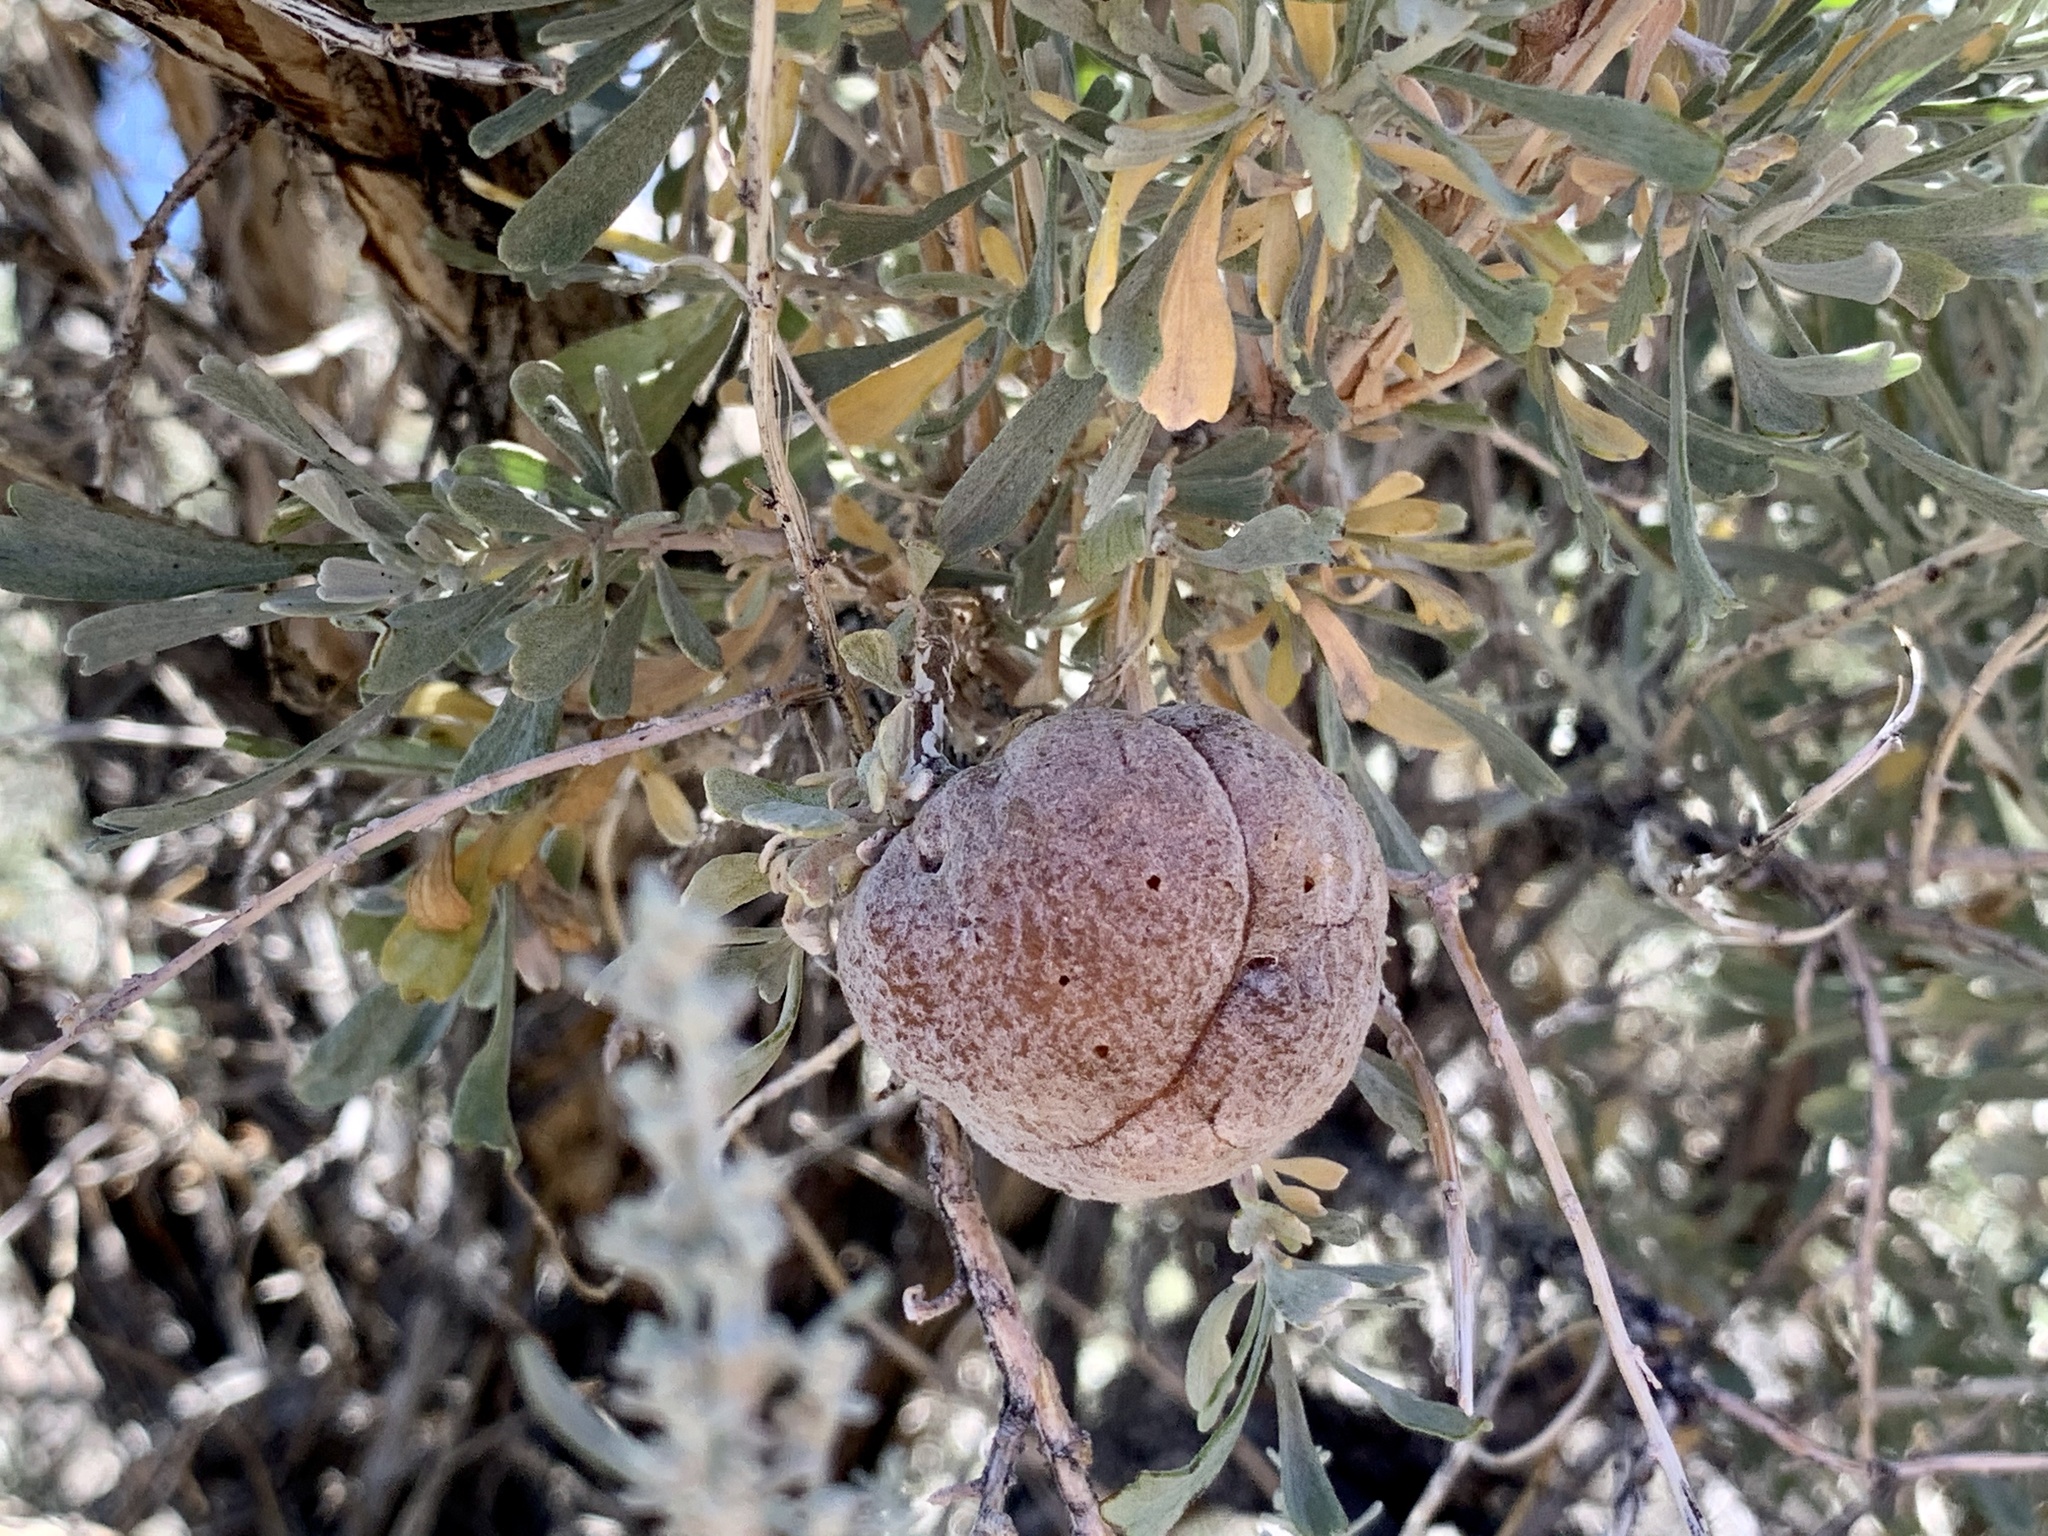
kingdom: Plantae
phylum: Tracheophyta
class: Magnoliopsida
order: Asterales
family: Asteraceae
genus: Artemisia
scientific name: Artemisia tridentata
